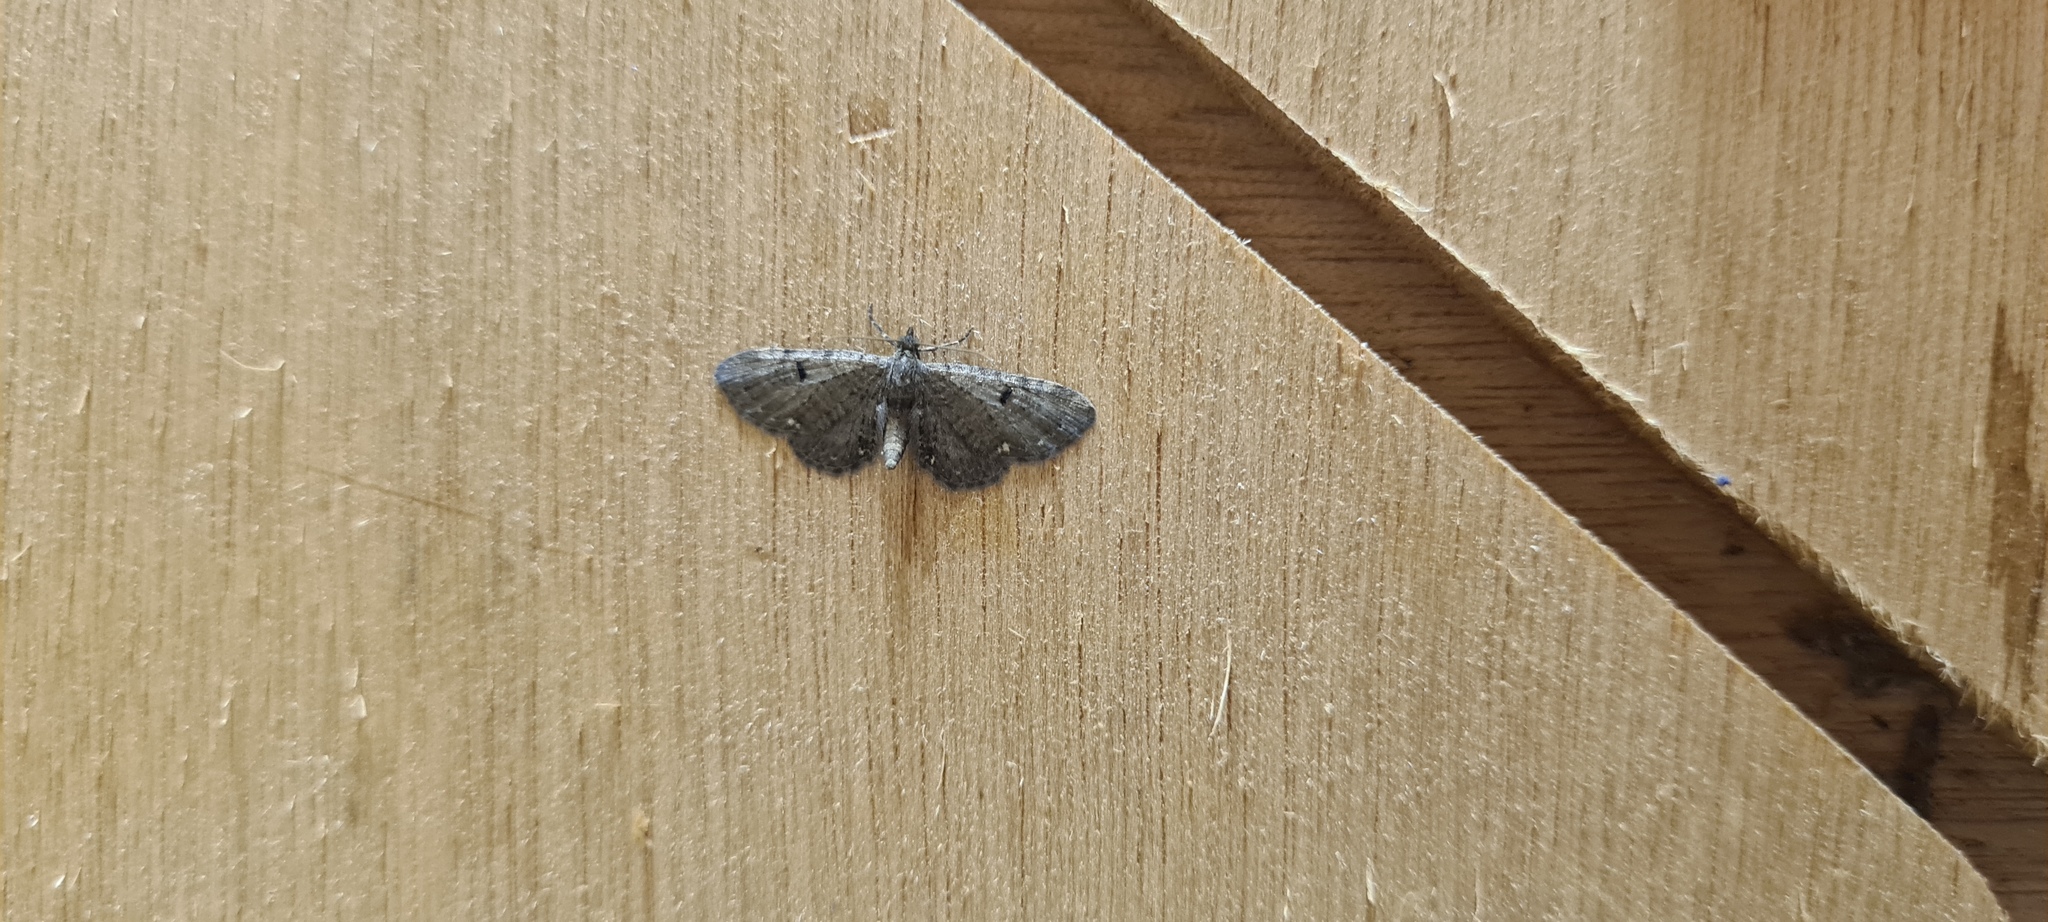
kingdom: Animalia
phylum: Arthropoda
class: Insecta
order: Lepidoptera
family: Geometridae
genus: Eupithecia
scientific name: Eupithecia assimilata
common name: Currant pug
